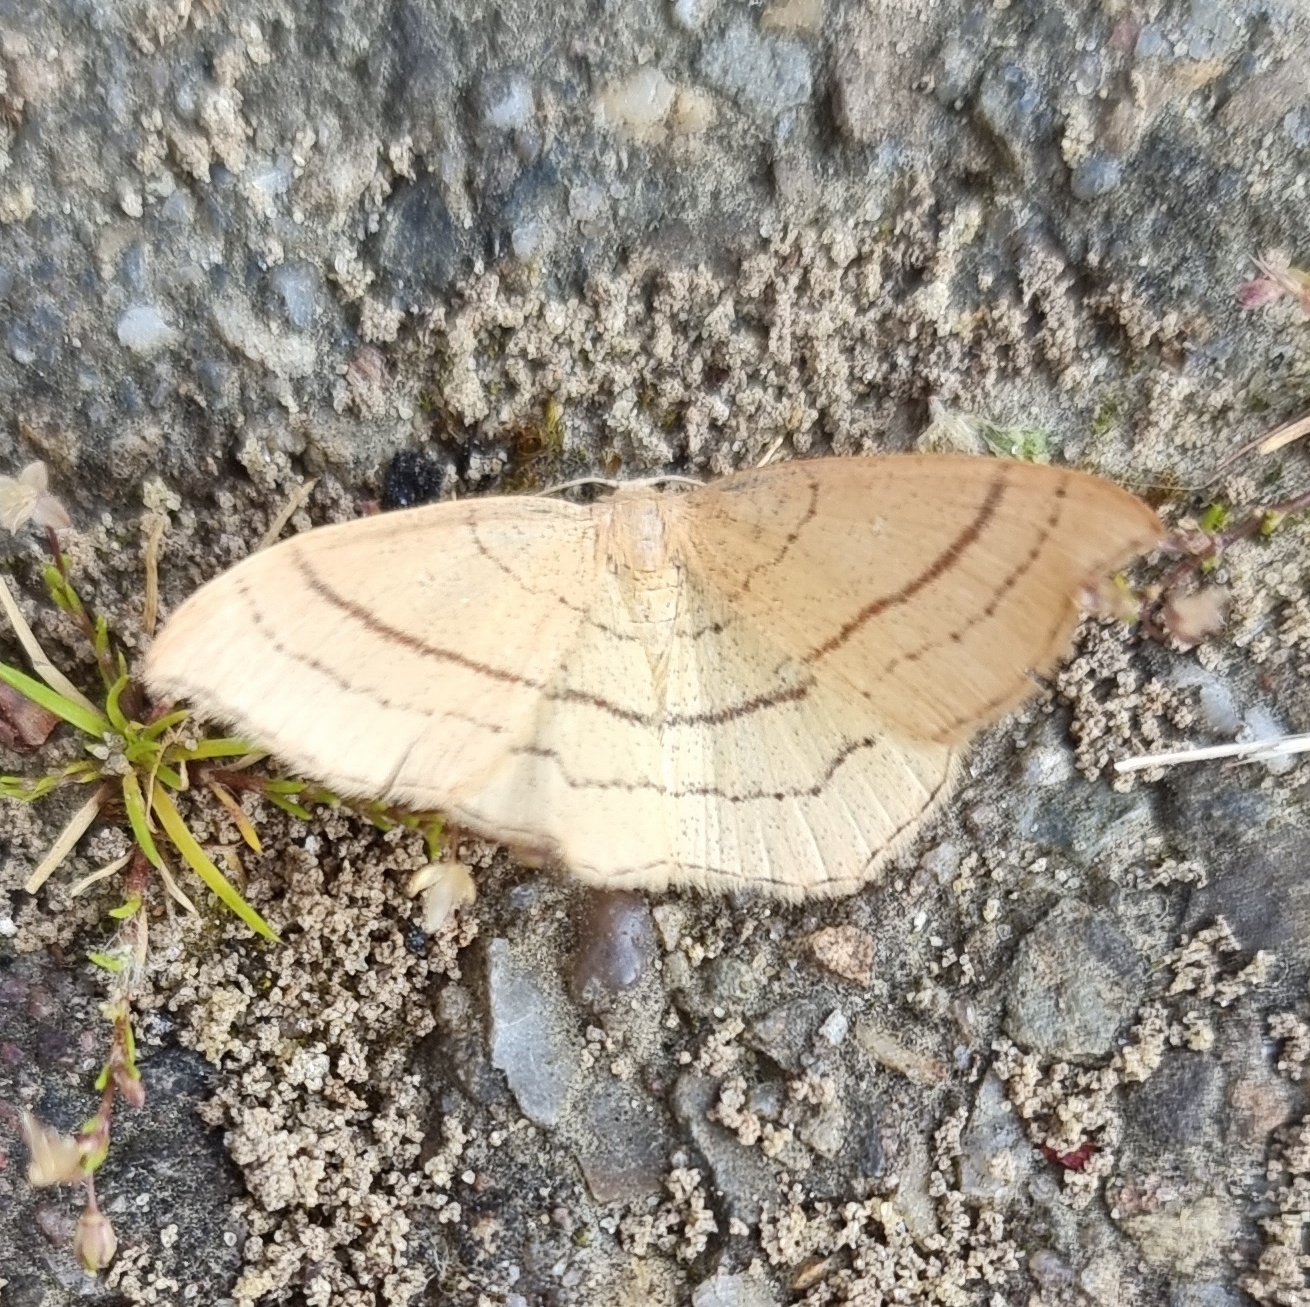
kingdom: Animalia
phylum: Arthropoda
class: Insecta
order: Lepidoptera
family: Geometridae
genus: Cyclophora
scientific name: Cyclophora linearia
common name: Clay triple-lines
